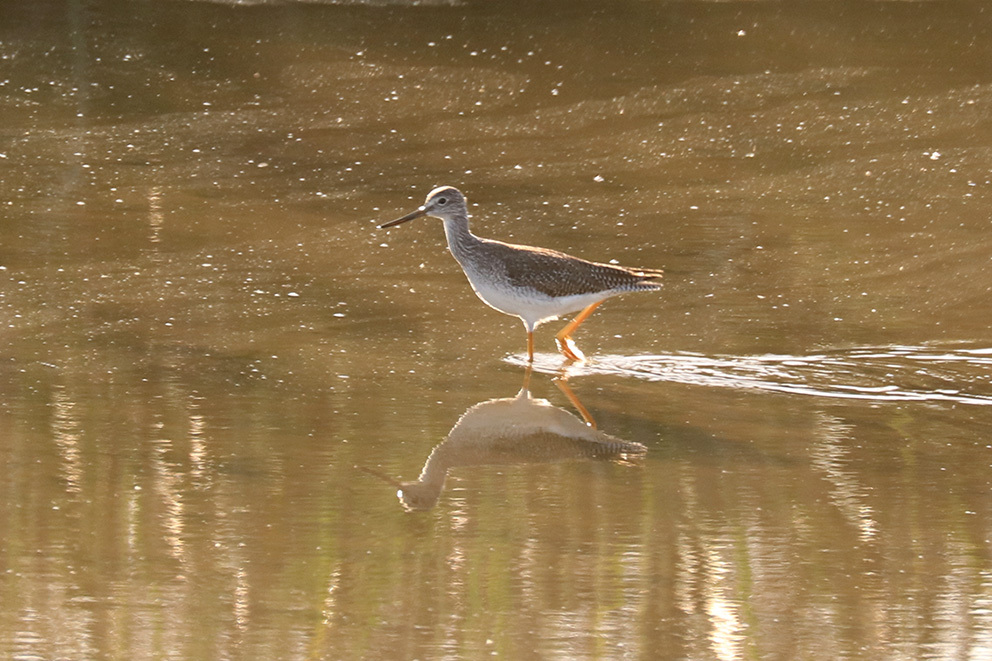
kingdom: Animalia
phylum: Chordata
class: Aves
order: Charadriiformes
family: Scolopacidae
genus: Tringa
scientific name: Tringa melanoleuca
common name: Greater yellowlegs
